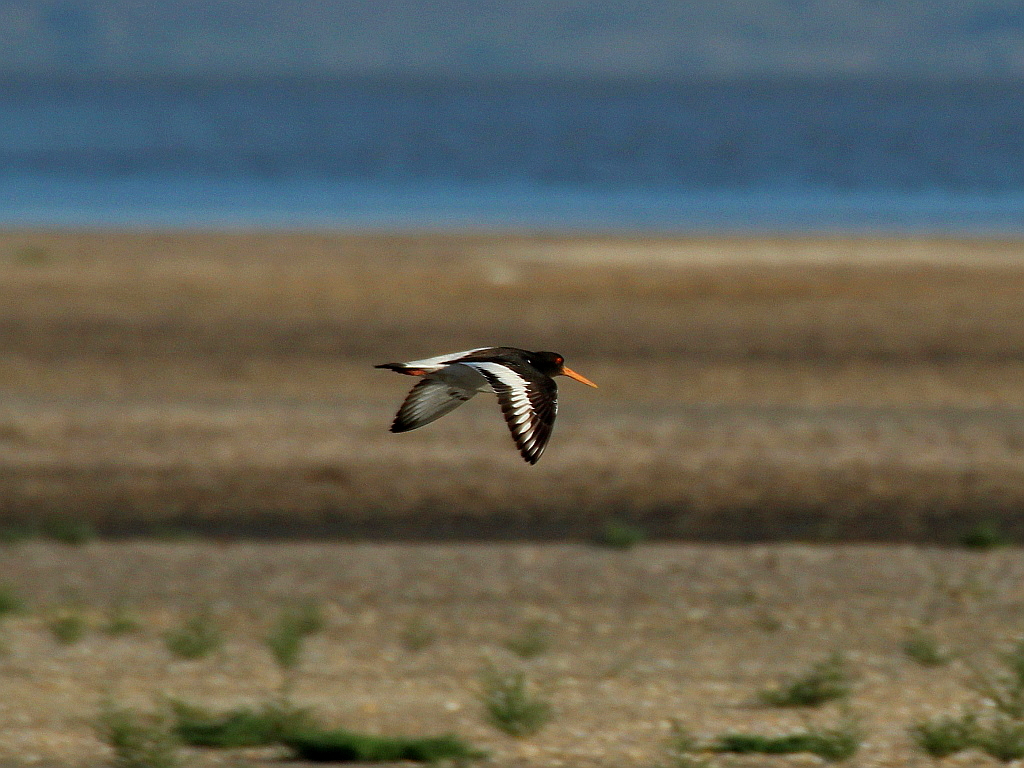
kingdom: Animalia
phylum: Chordata
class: Aves
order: Charadriiformes
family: Haematopodidae
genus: Haematopus
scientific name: Haematopus ostralegus
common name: Eurasian oystercatcher
